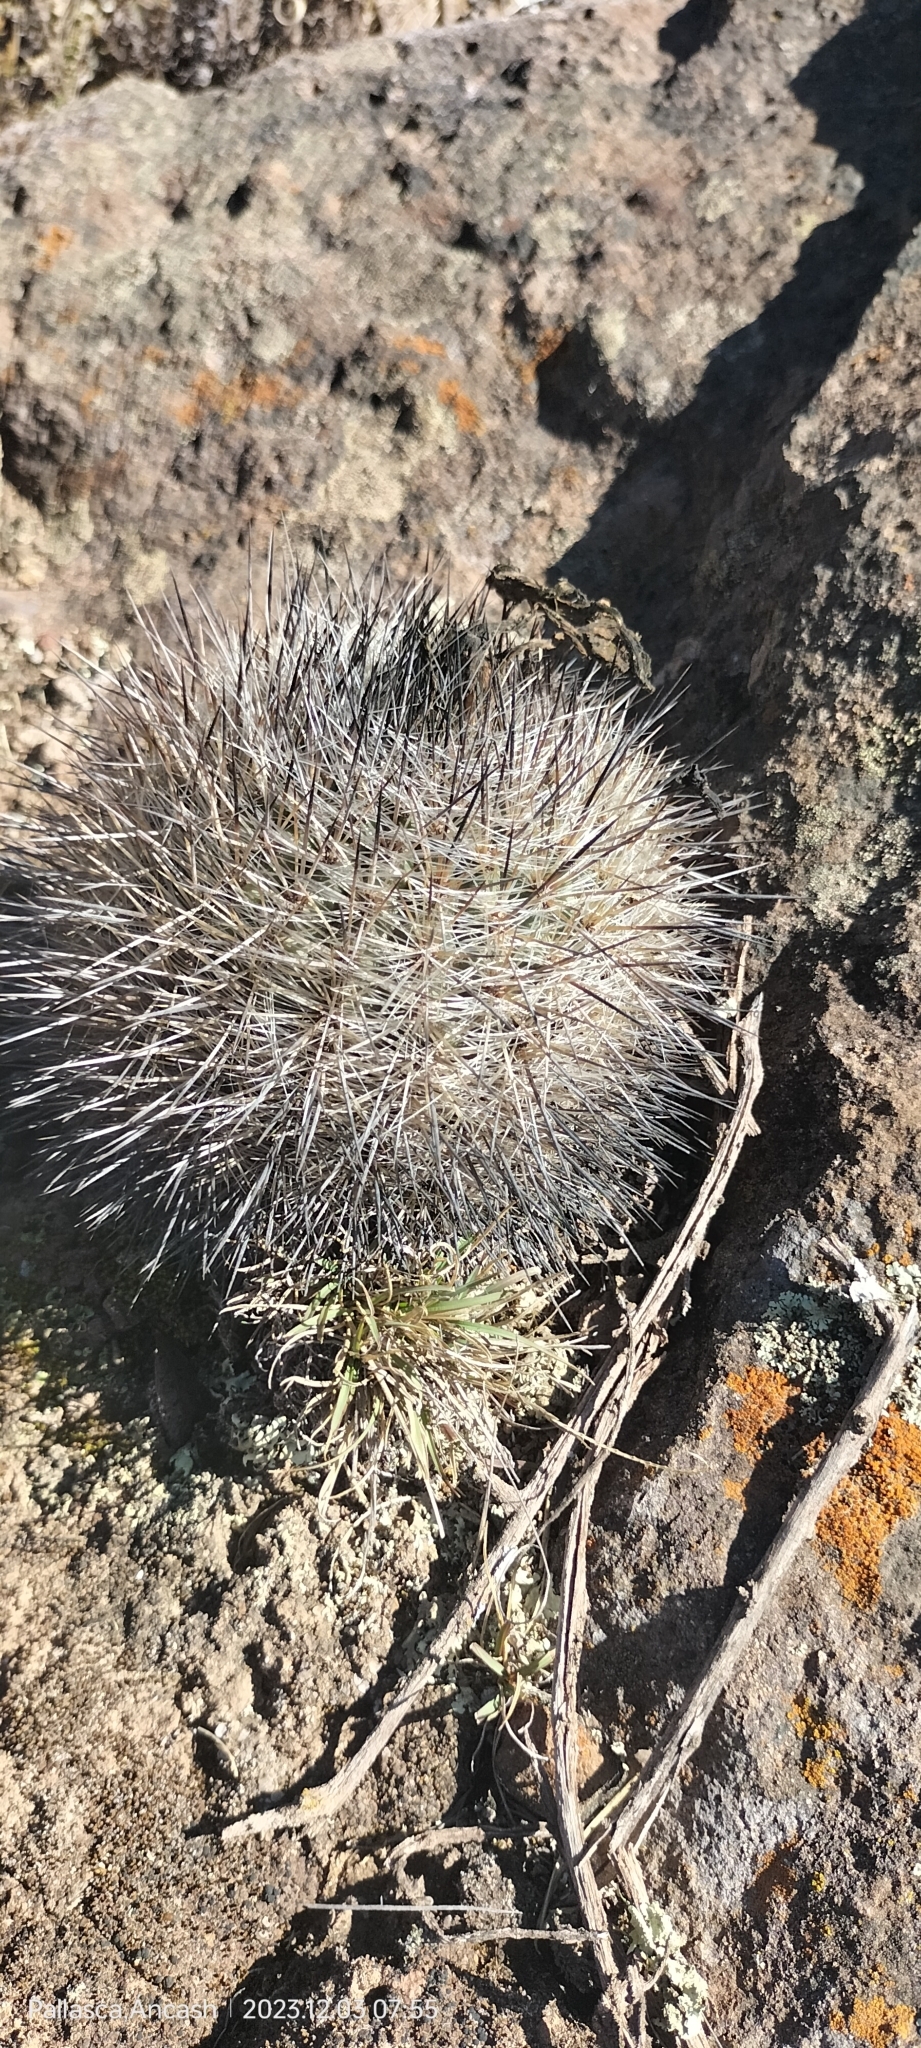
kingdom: Plantae
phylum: Tracheophyta
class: Magnoliopsida
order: Caryophyllales
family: Cactaceae
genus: Matucana
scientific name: Matucana haynii
